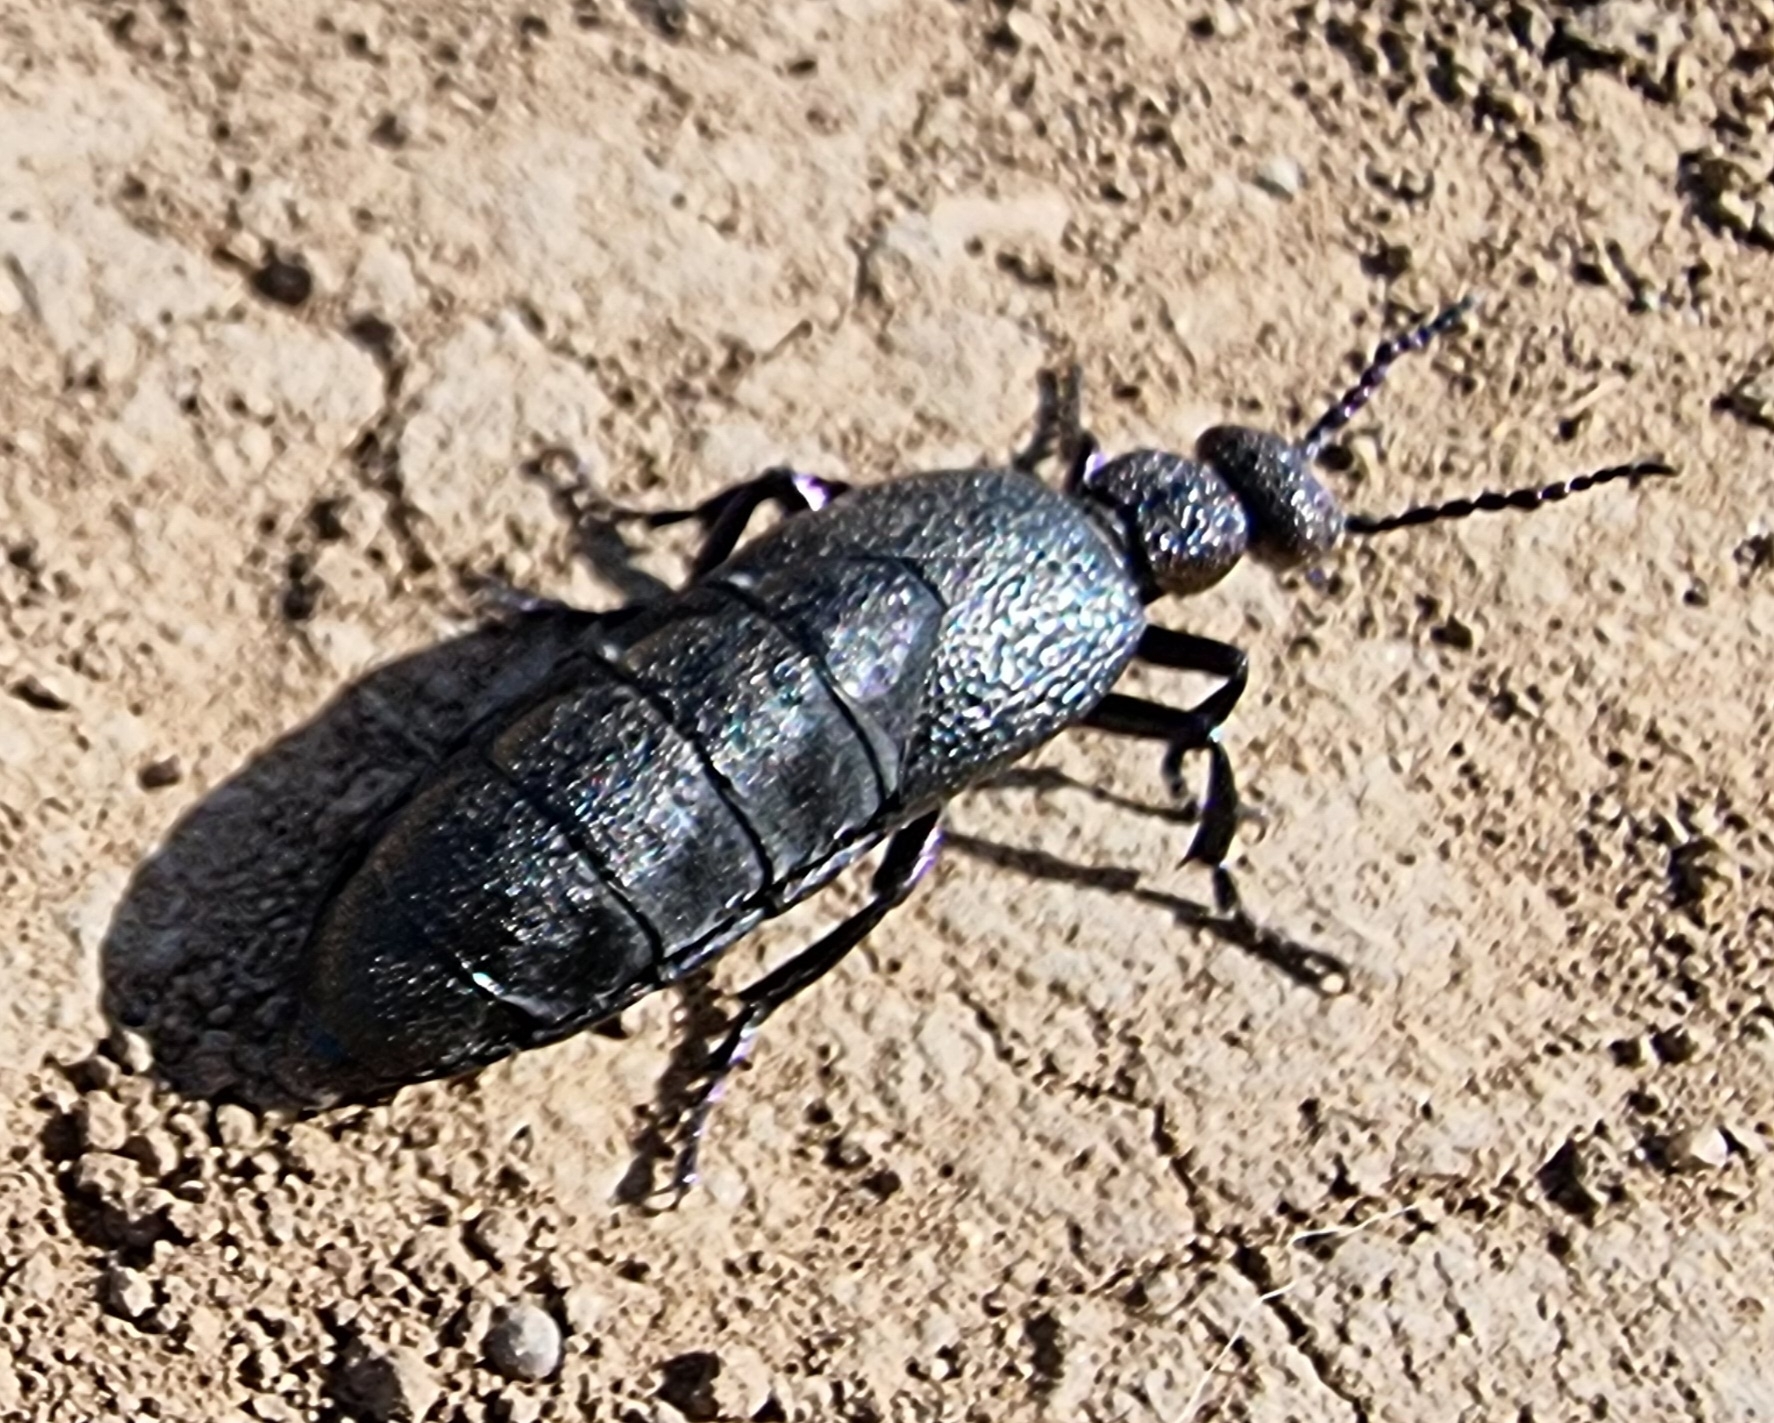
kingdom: Animalia
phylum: Arthropoda
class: Insecta
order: Coleoptera
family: Meloidae
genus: Meloe
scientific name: Meloe proscarabaeus
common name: Black oil-beetle
